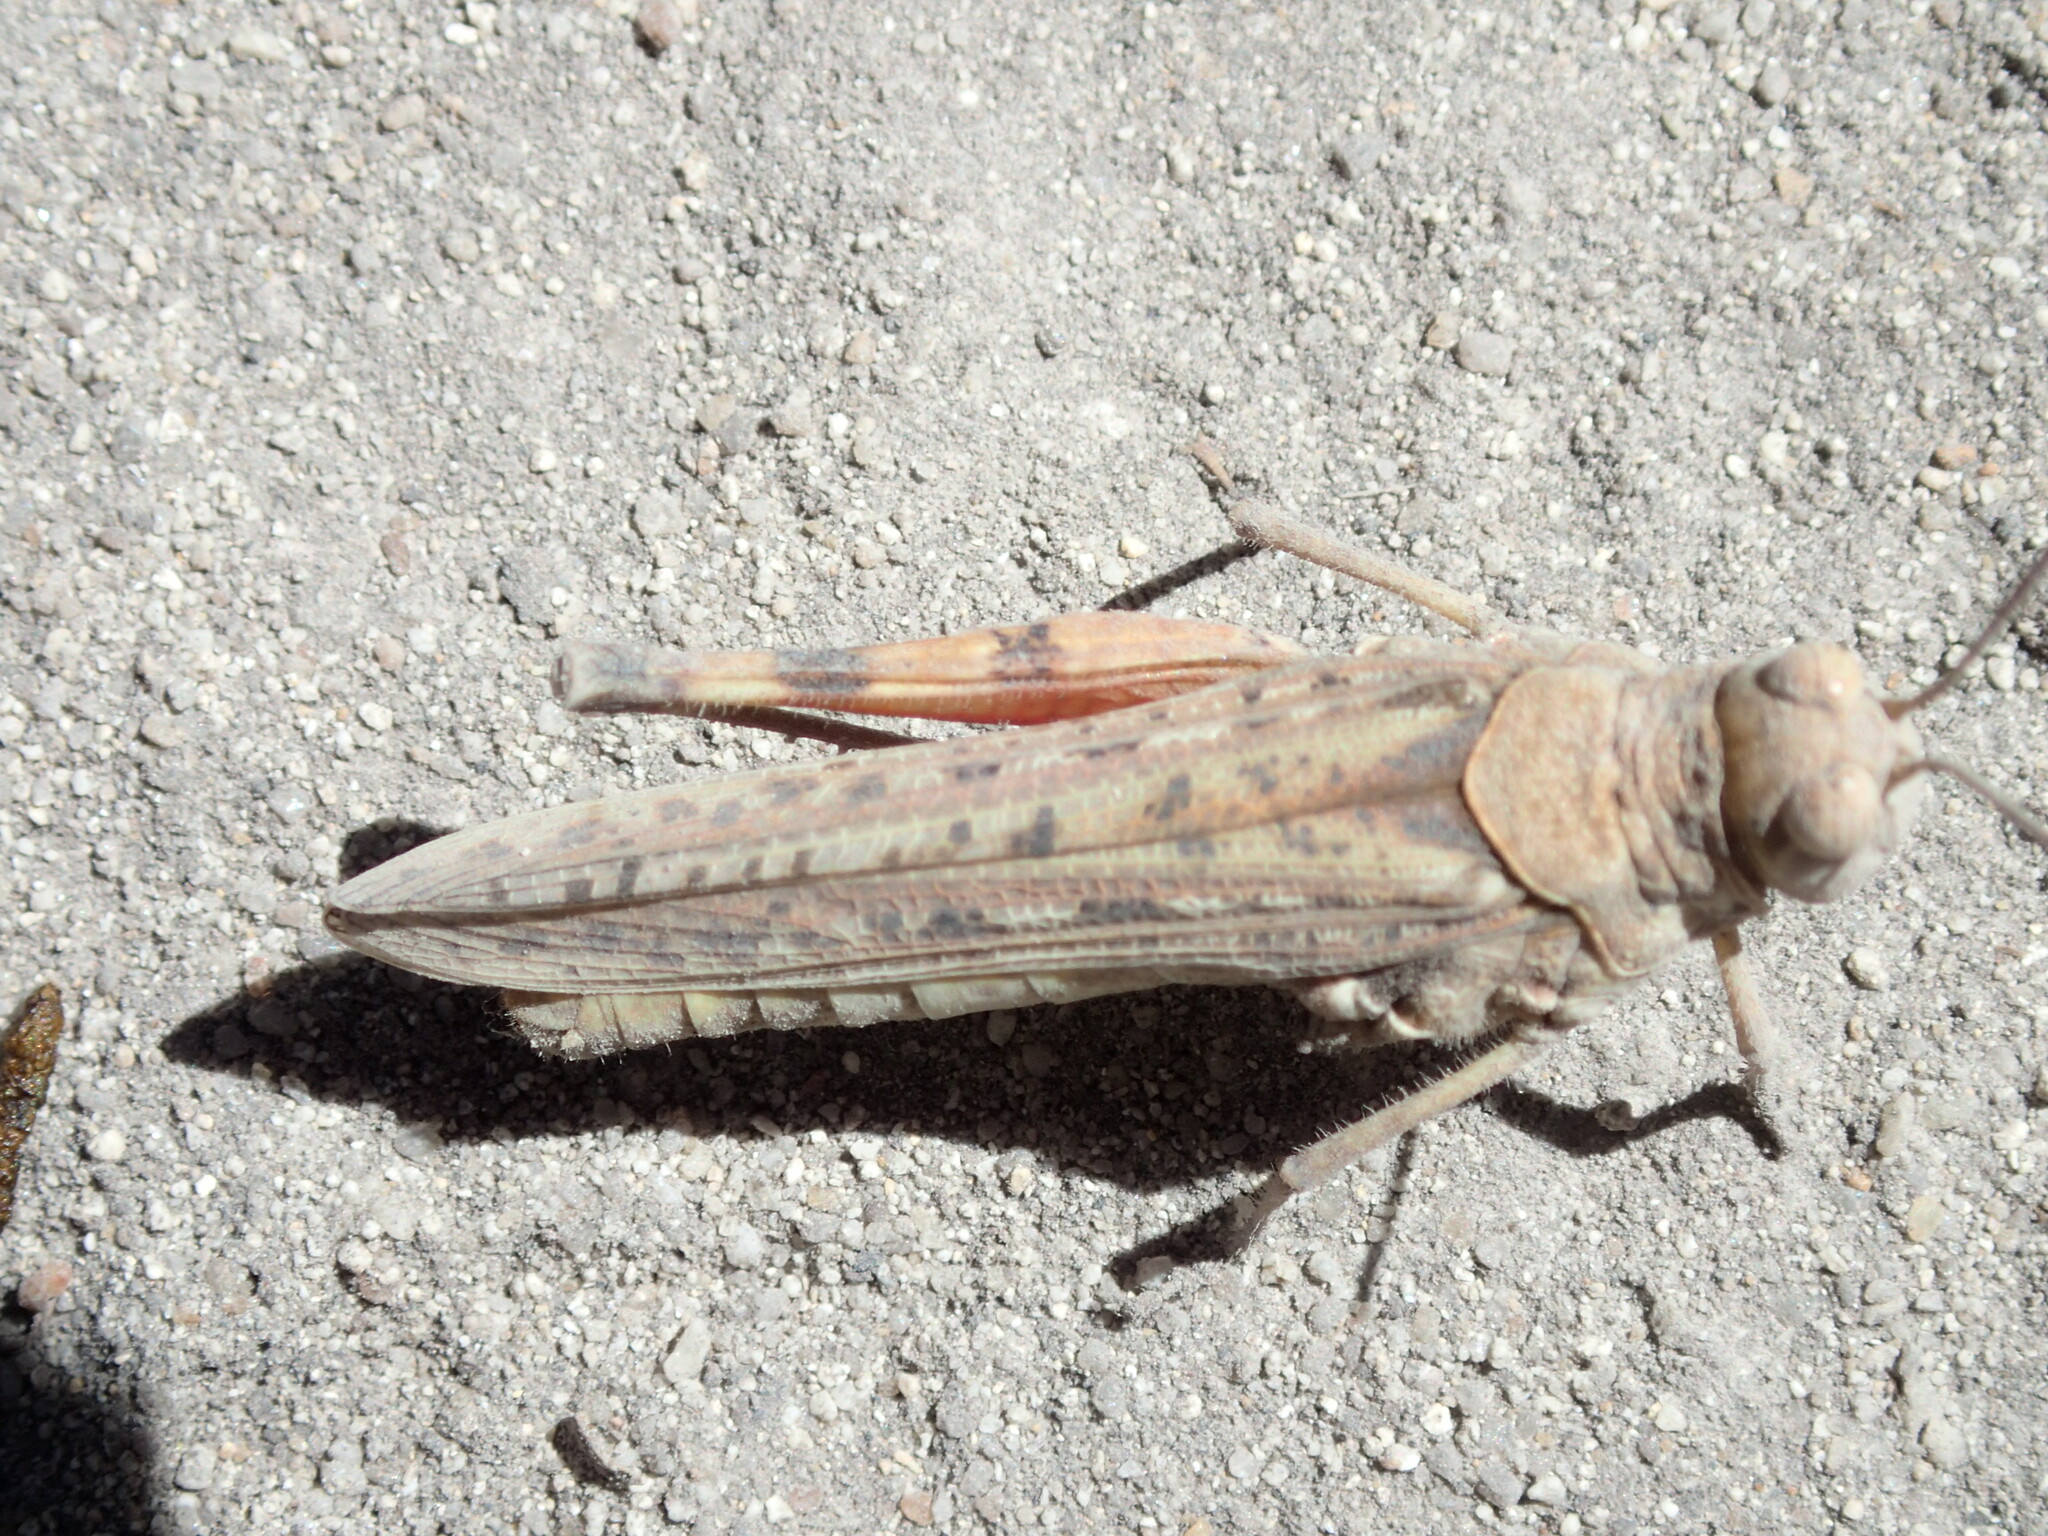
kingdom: Animalia
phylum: Arthropoda
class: Insecta
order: Orthoptera
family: Acrididae
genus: Urnisa
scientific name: Urnisa guttulosa
